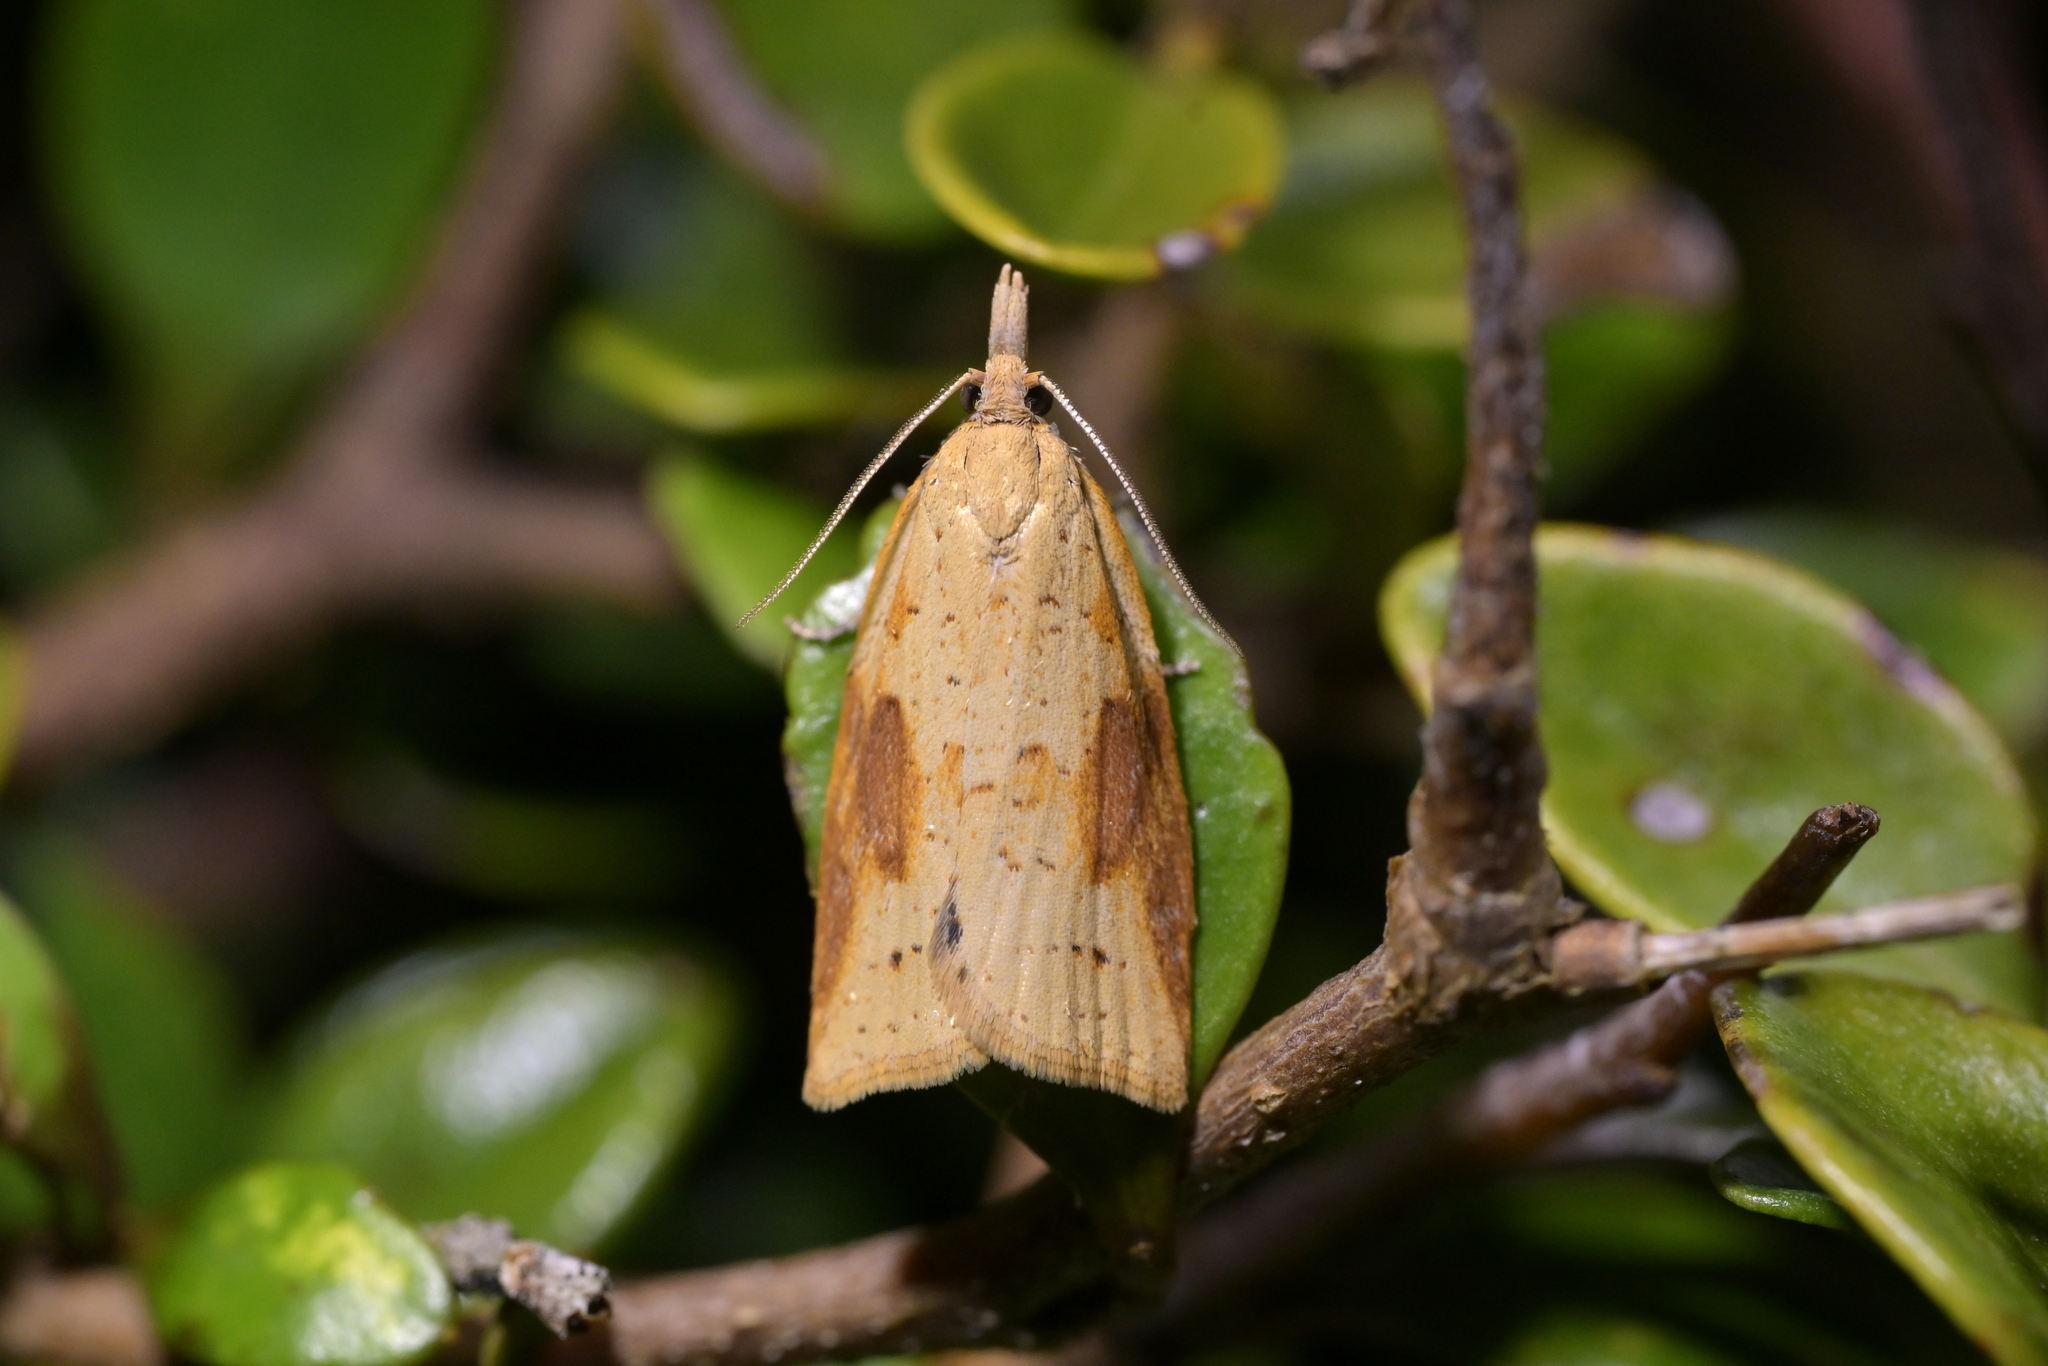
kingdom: Animalia
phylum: Arthropoda
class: Insecta
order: Lepidoptera
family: Tortricidae
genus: Apoctena
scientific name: Apoctena conditana
